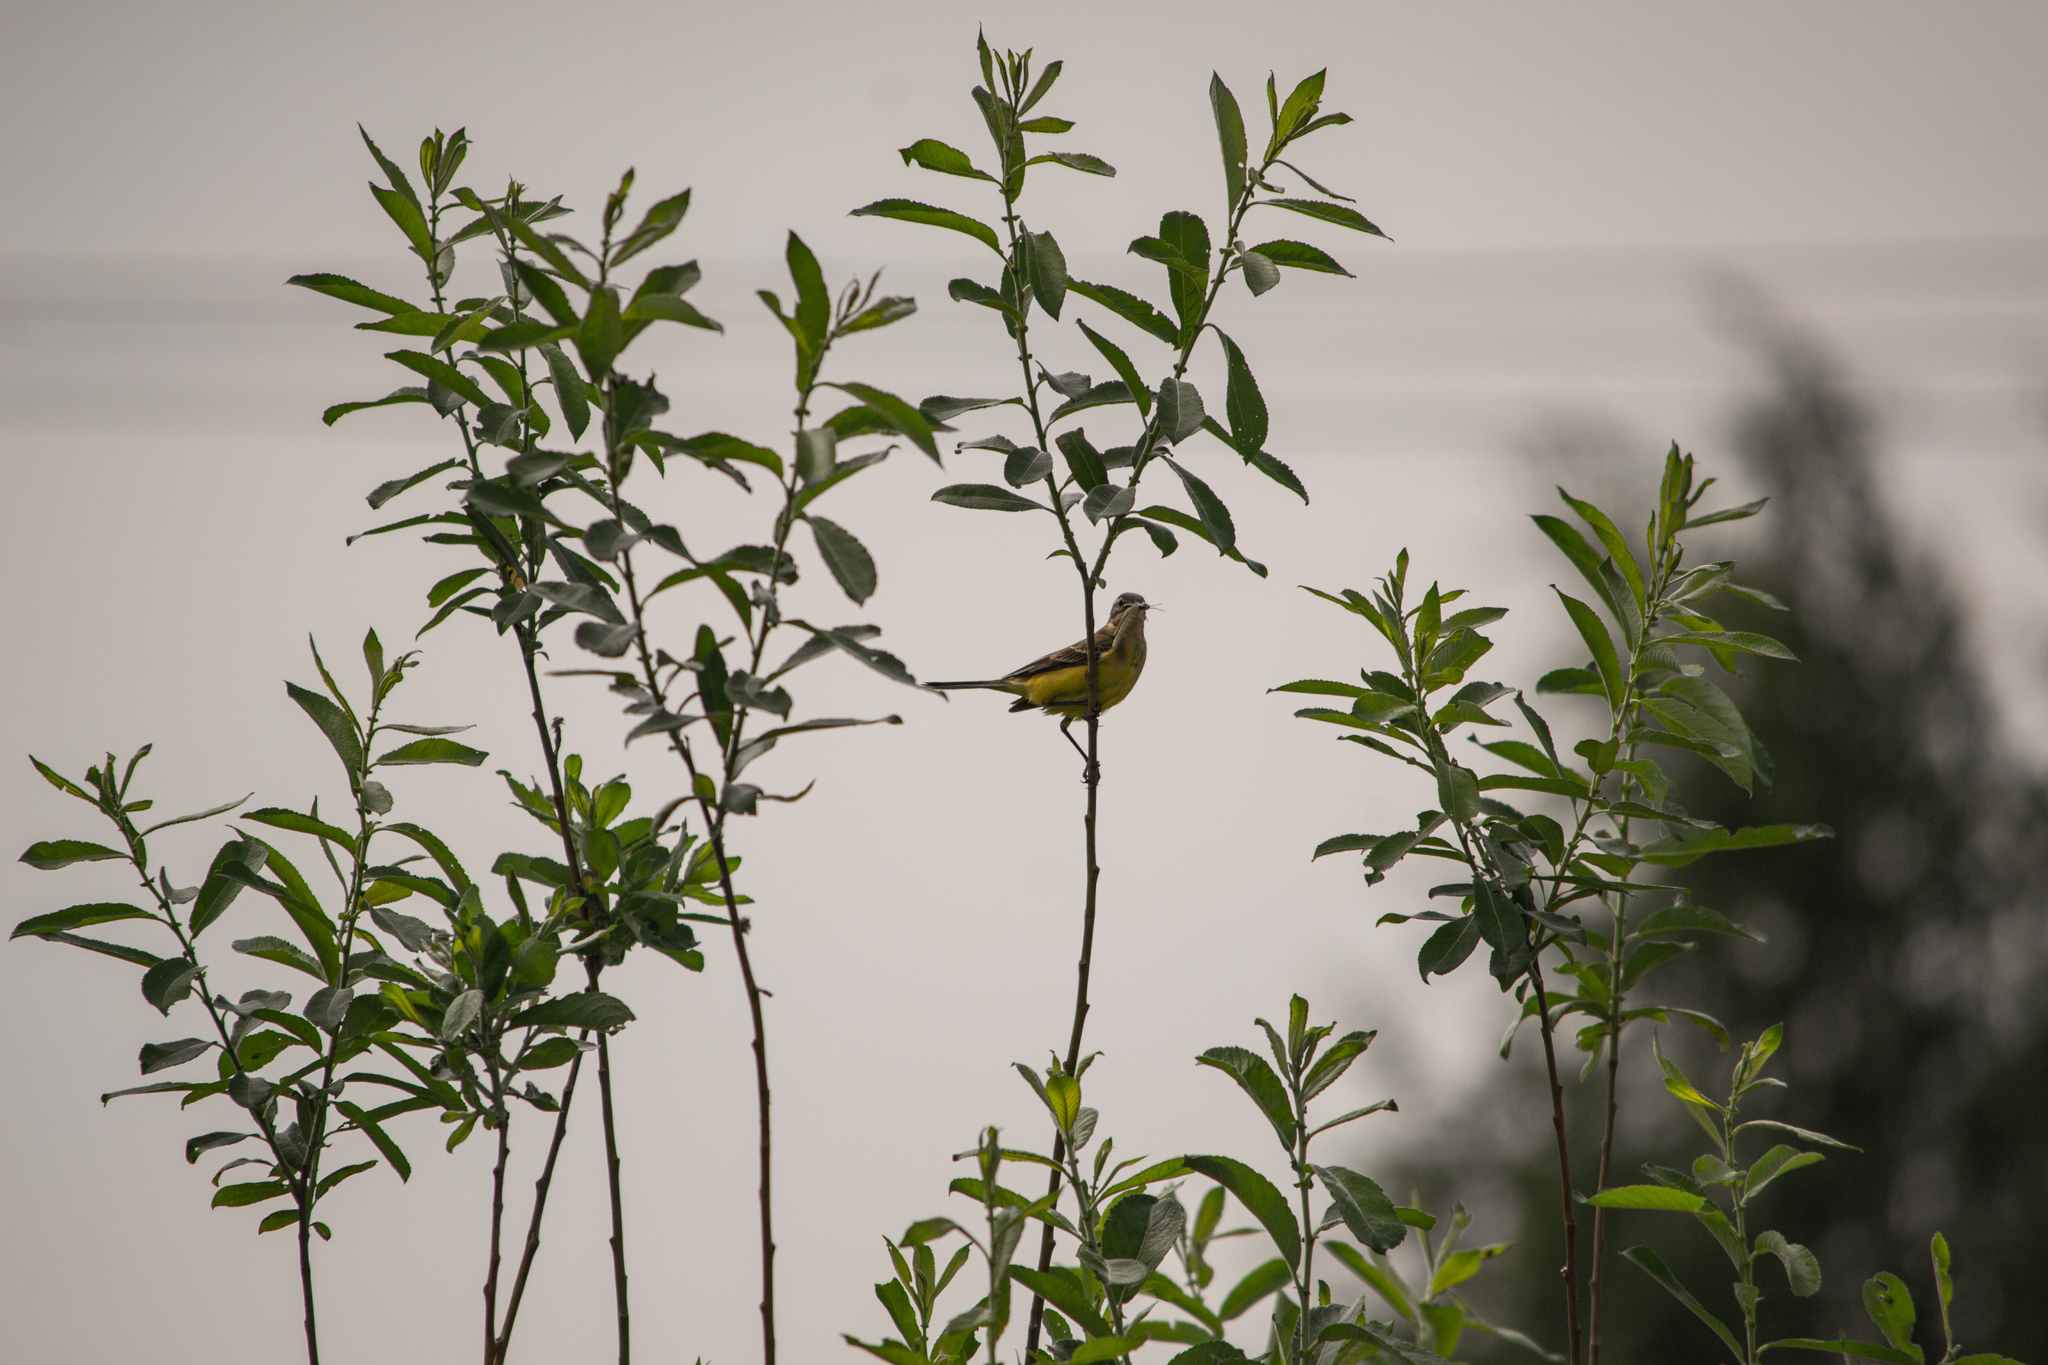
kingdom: Animalia
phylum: Chordata
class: Aves
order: Passeriformes
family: Motacillidae
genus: Motacilla
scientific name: Motacilla flava
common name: Western yellow wagtail
